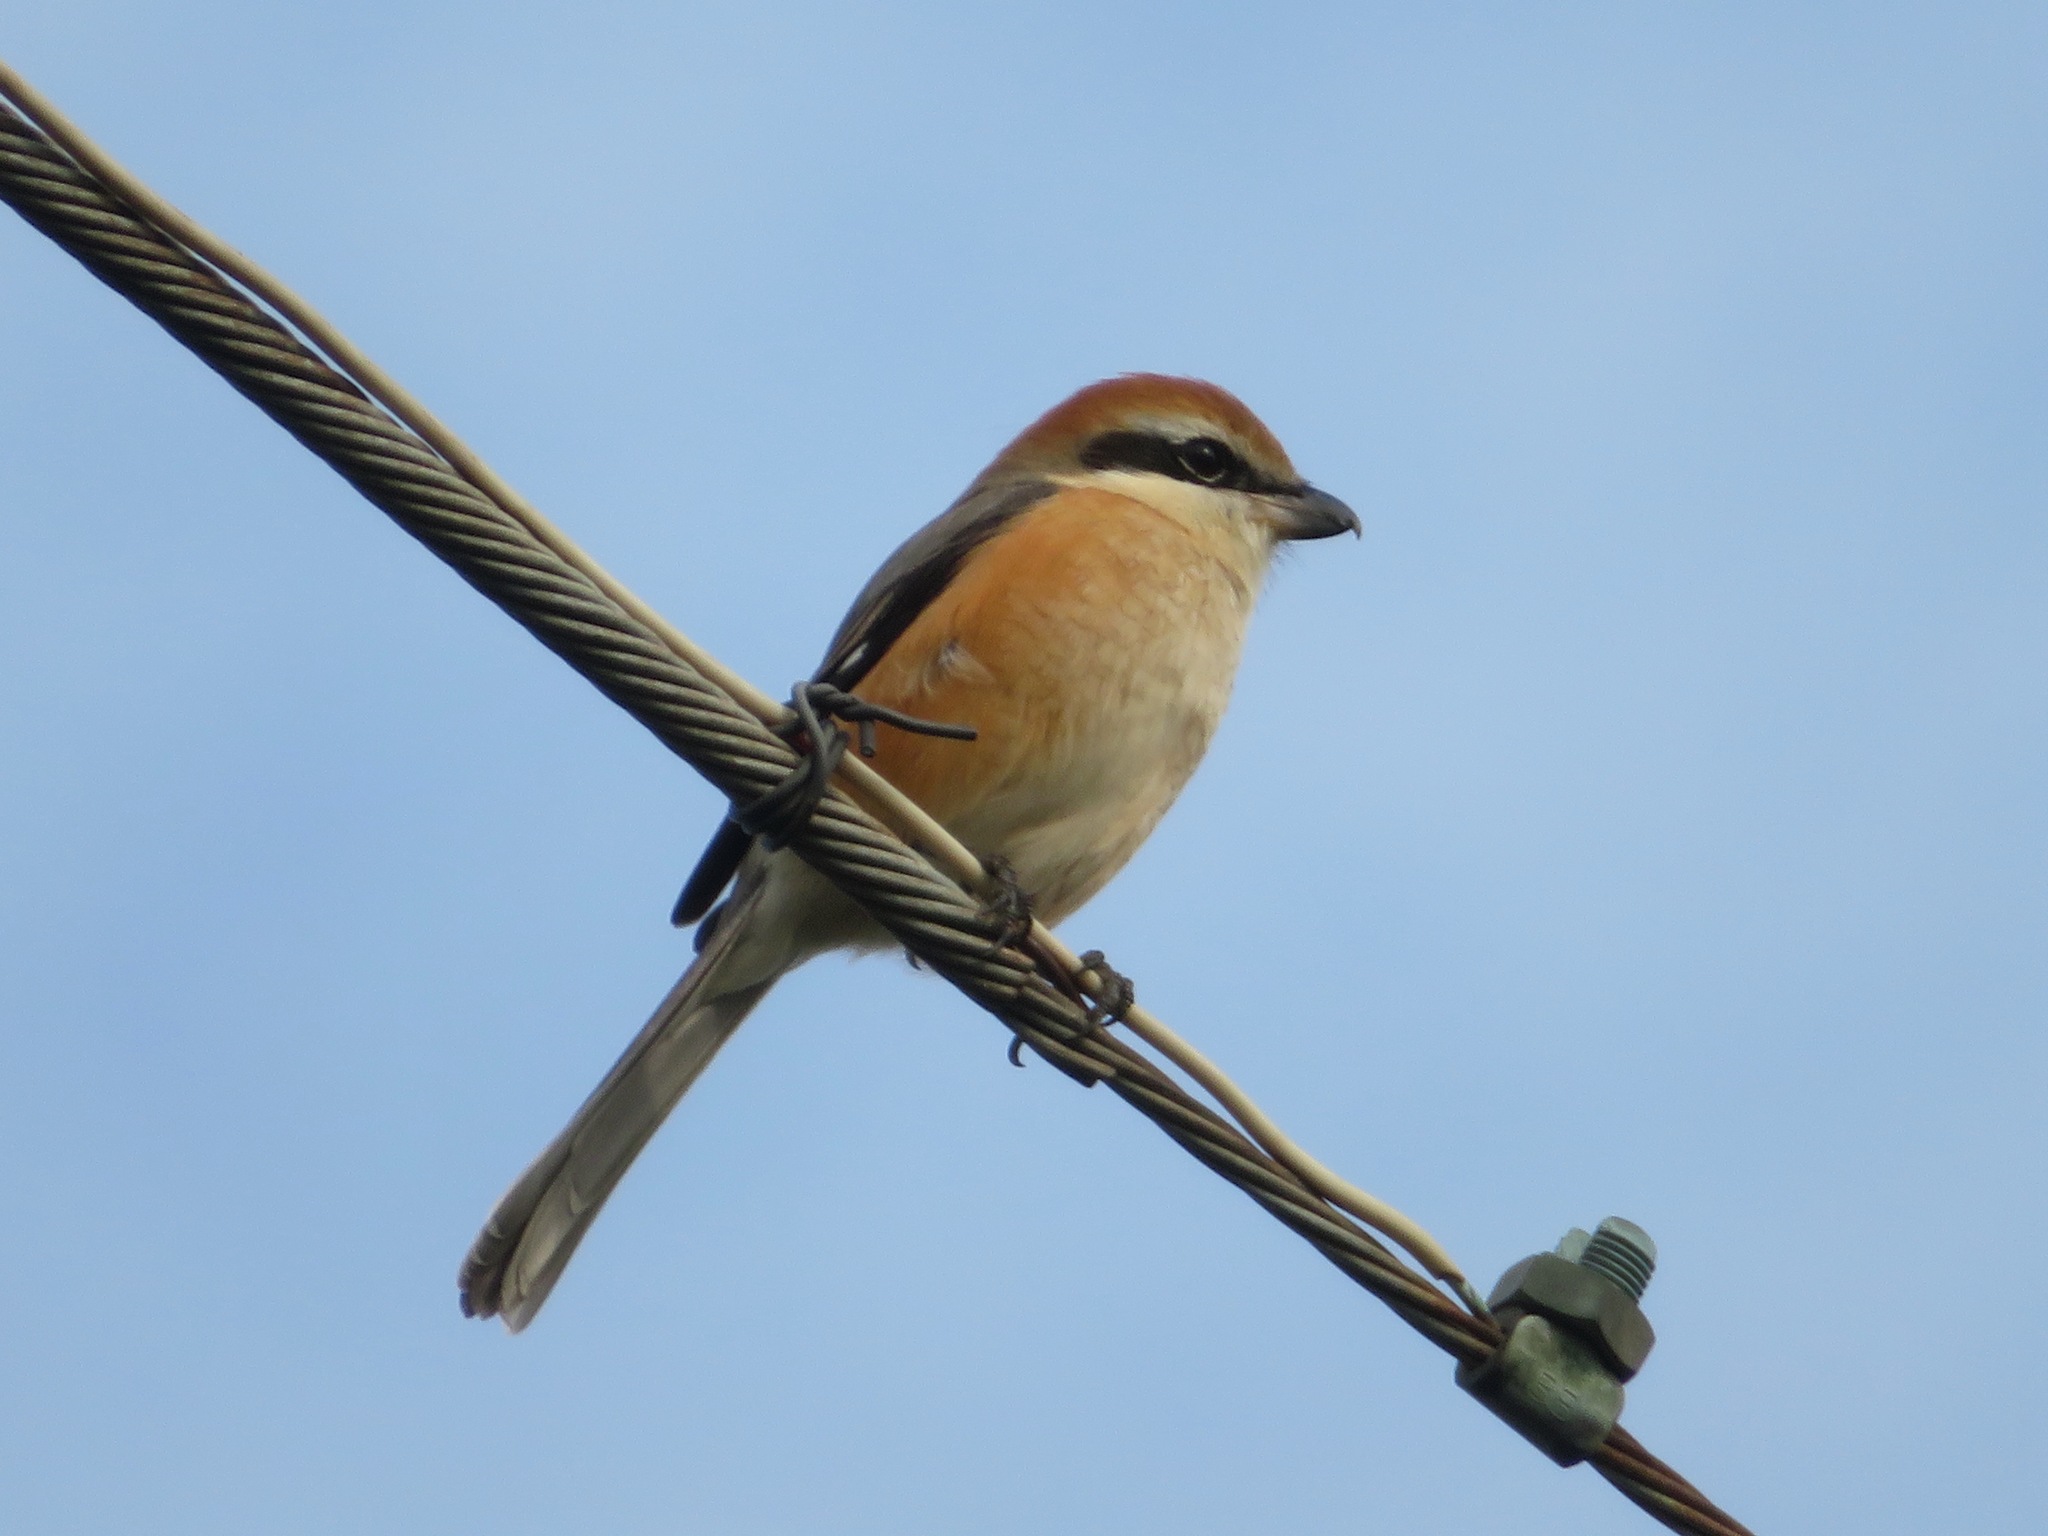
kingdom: Animalia
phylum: Chordata
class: Aves
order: Passeriformes
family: Laniidae
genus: Lanius
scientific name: Lanius bucephalus
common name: Bull-headed shrike
